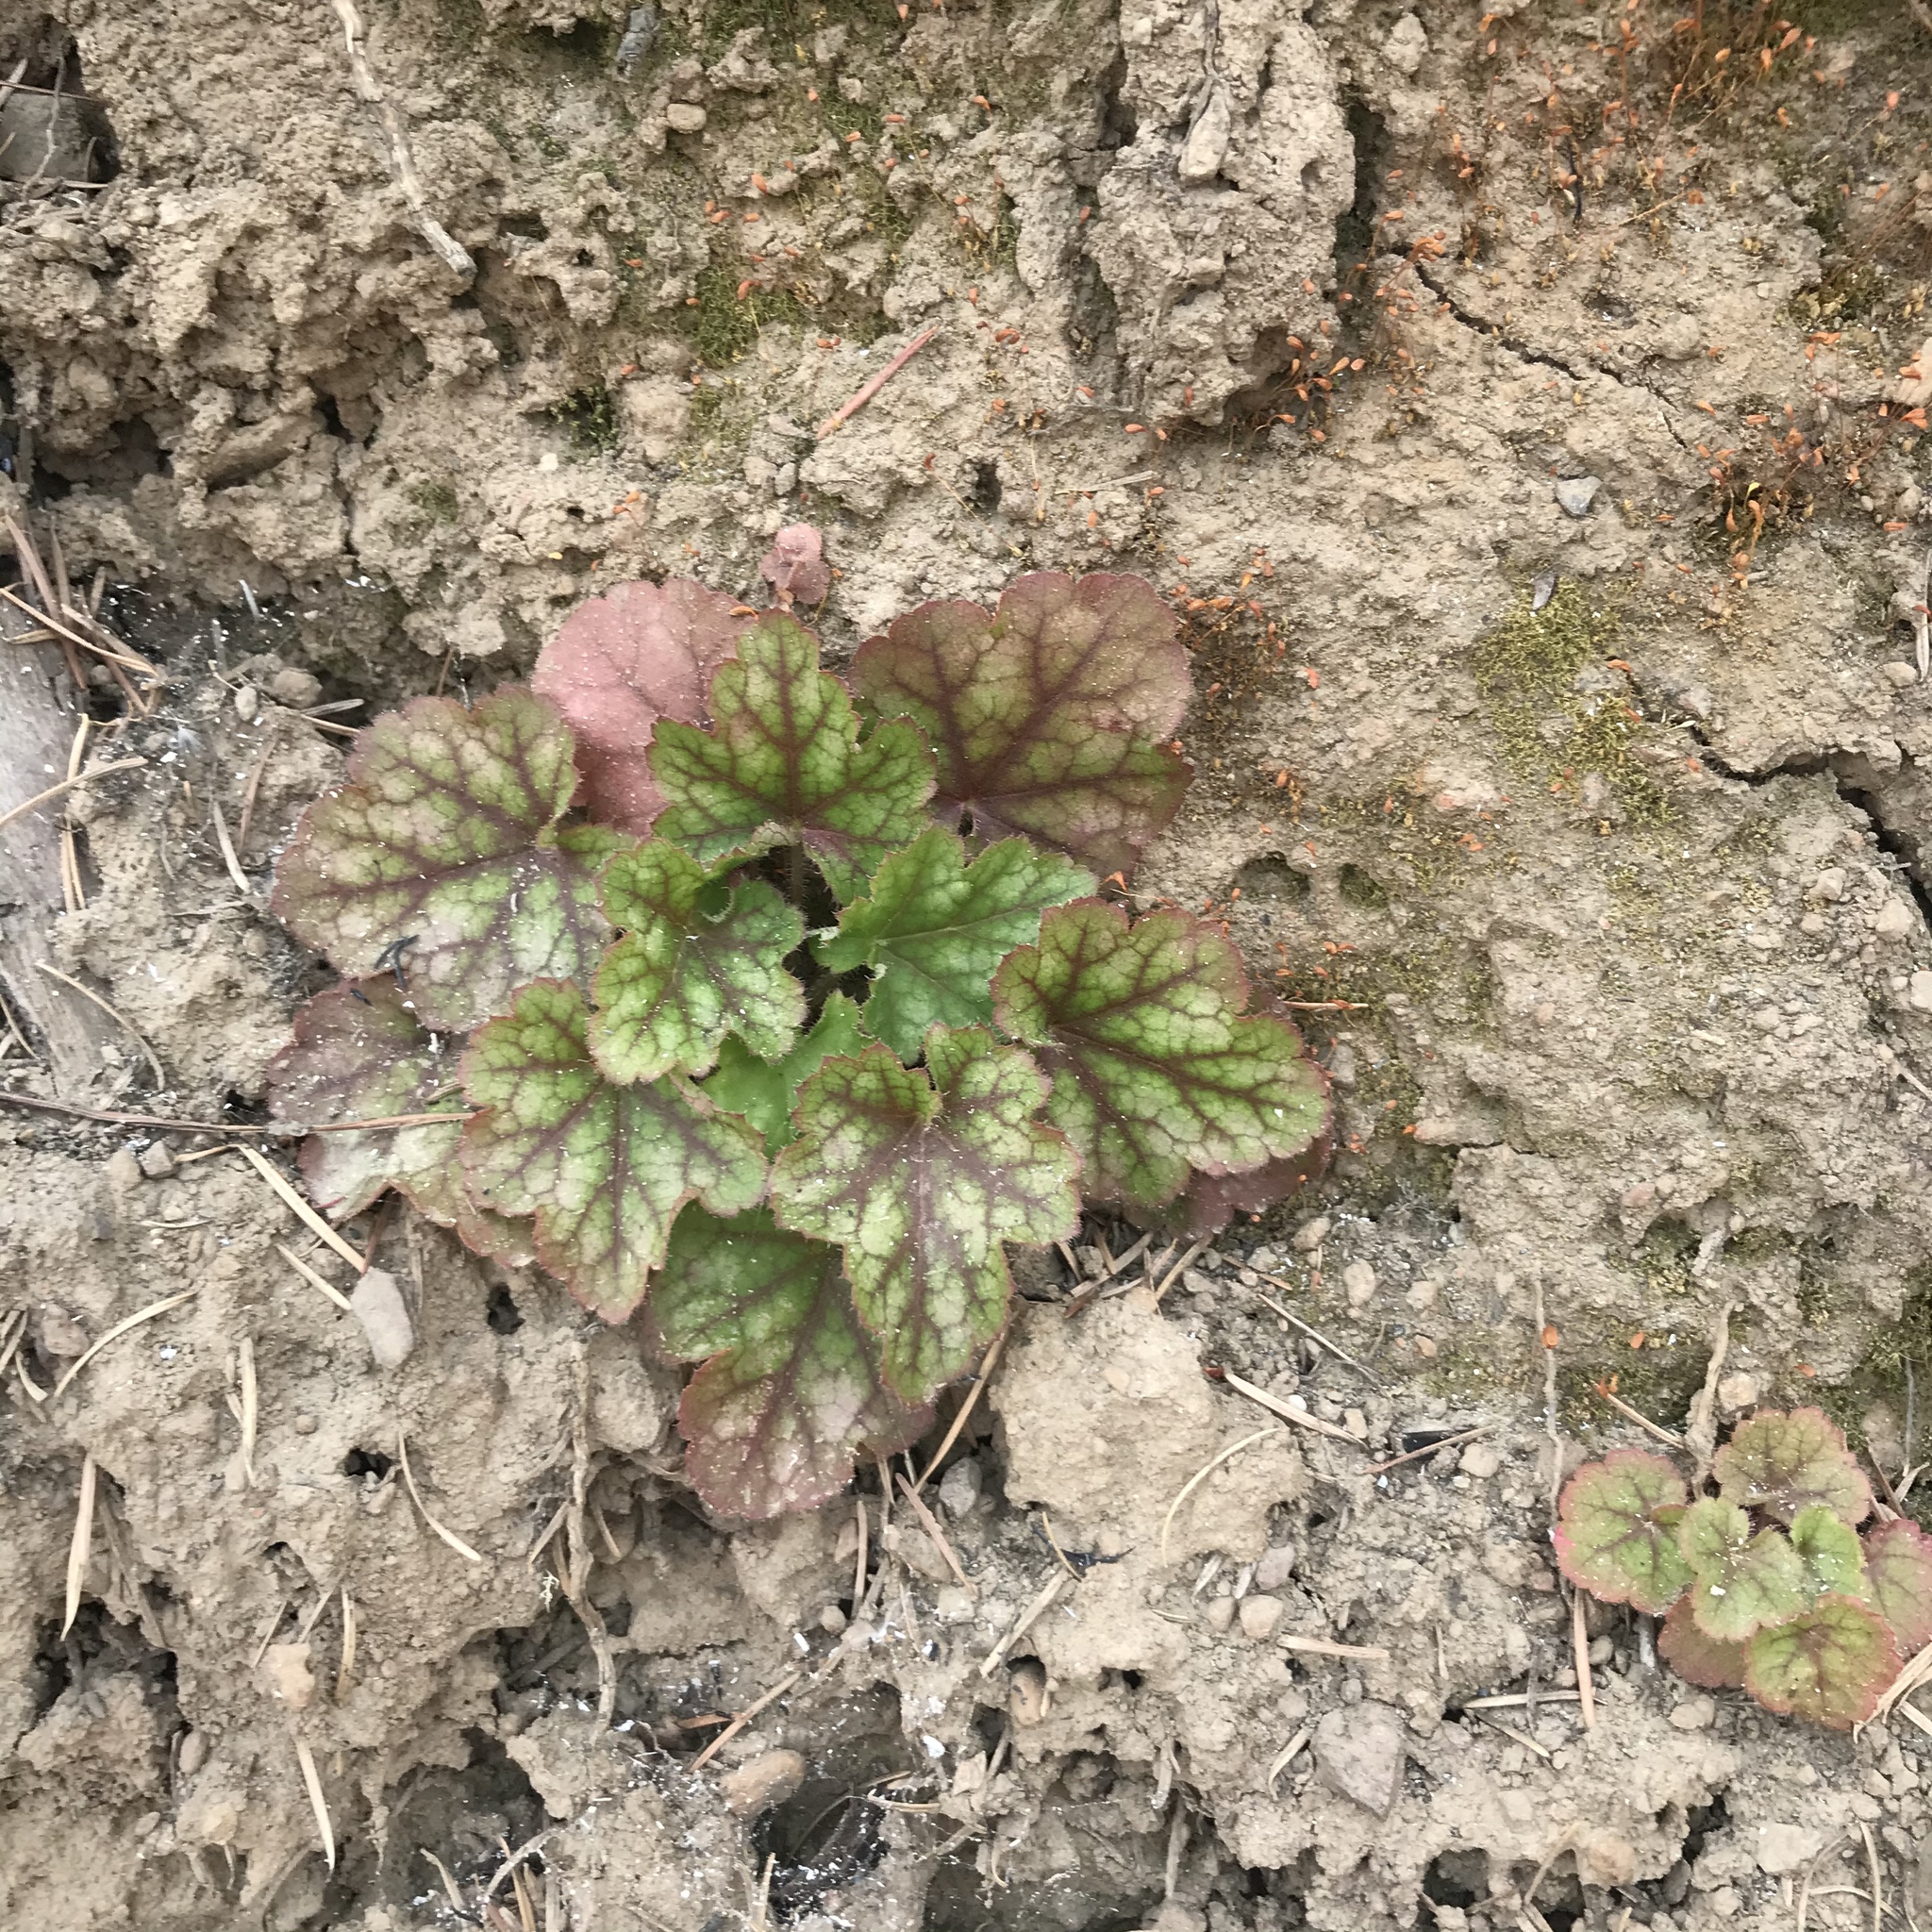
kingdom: Plantae
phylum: Tracheophyta
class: Magnoliopsida
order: Saxifragales
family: Saxifragaceae
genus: Heuchera
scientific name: Heuchera micrantha
